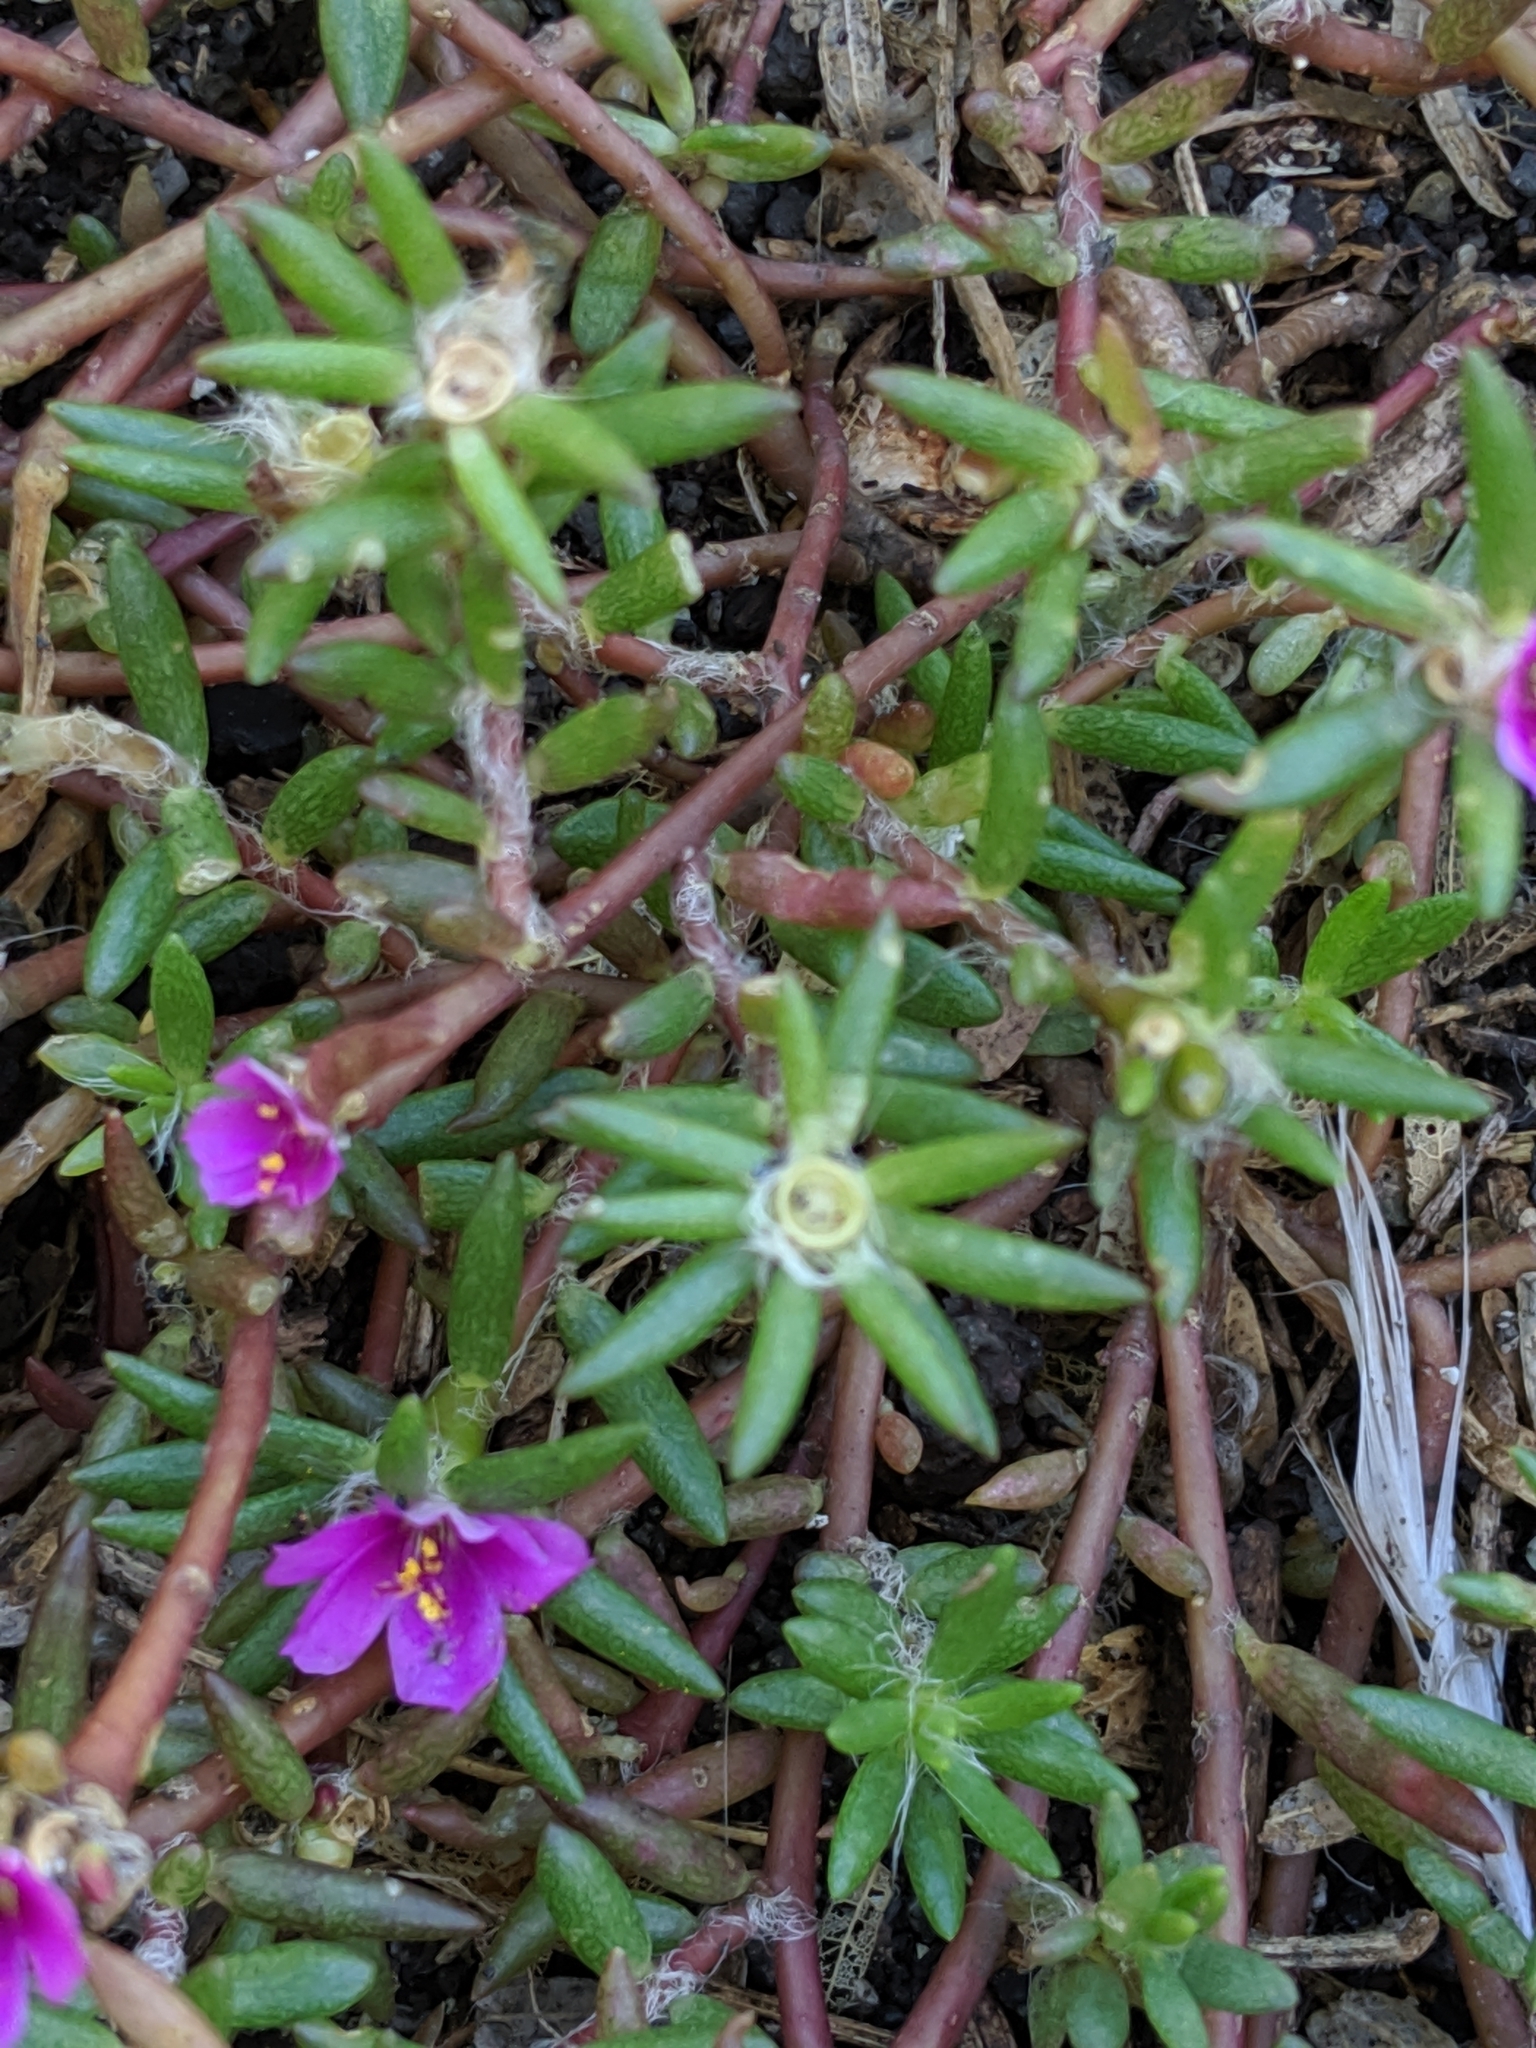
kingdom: Plantae
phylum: Tracheophyta
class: Magnoliopsida
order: Caryophyllales
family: Portulacaceae
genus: Portulaca
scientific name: Portulaca pilosa
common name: Kiss me quick
